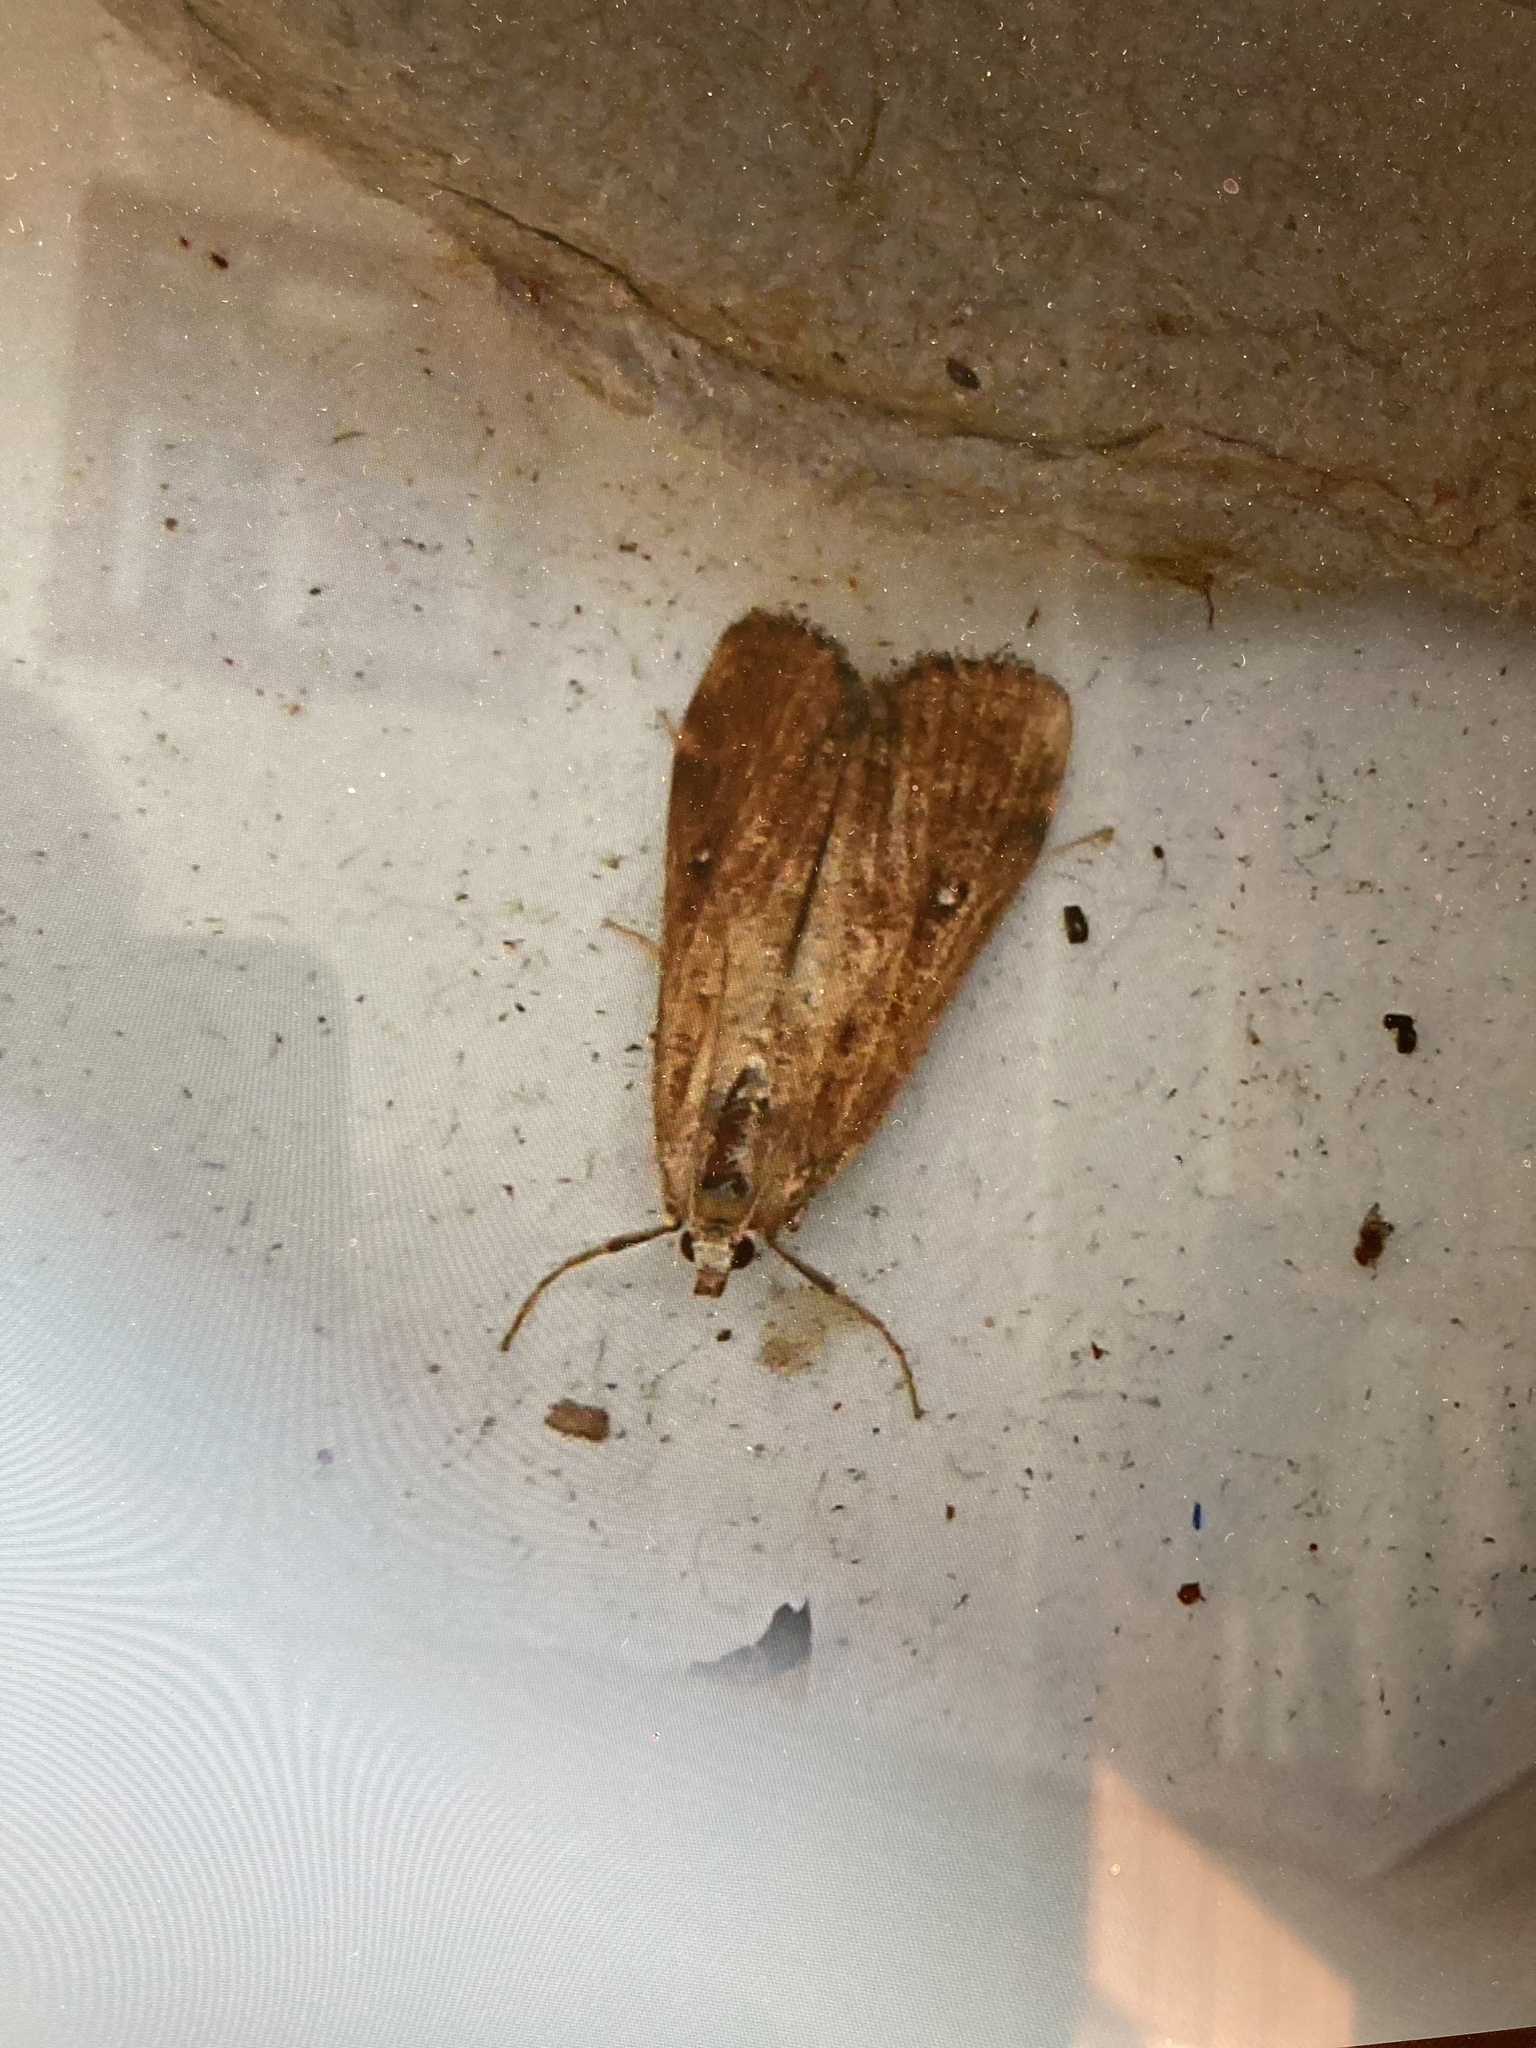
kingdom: Animalia
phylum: Arthropoda
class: Insecta
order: Lepidoptera
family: Crambidae
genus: Parapoynx
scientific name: Parapoynx stratiotata
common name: Ringed china-mark
